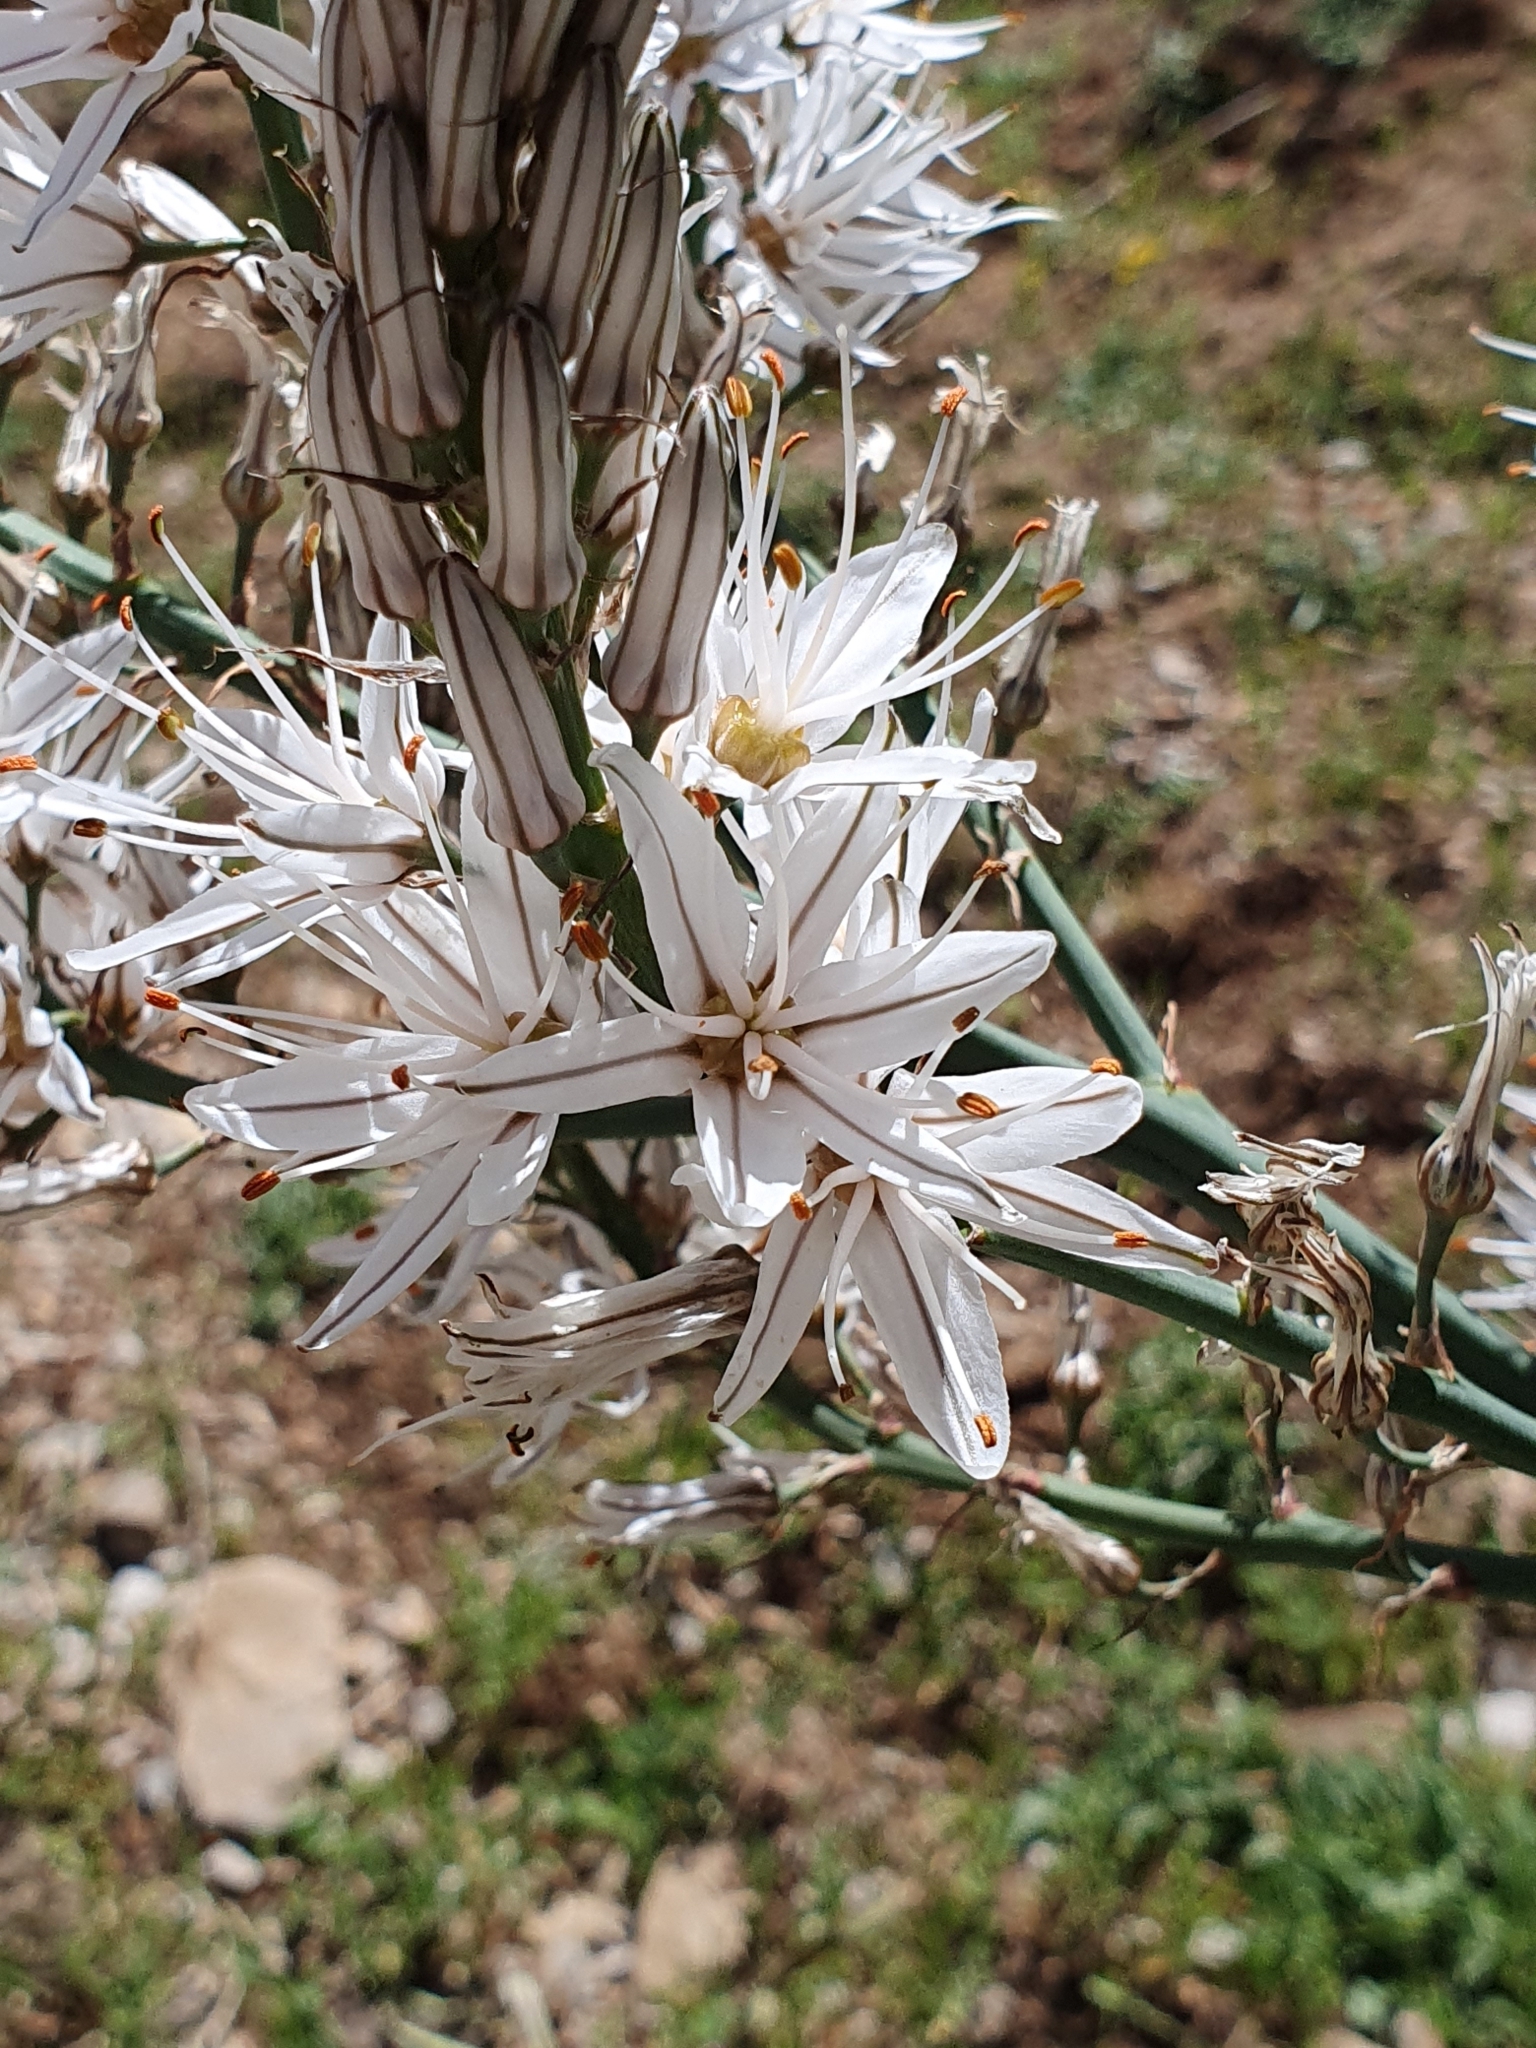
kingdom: Plantae
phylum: Tracheophyta
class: Liliopsida
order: Asparagales
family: Asphodelaceae
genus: Asphodelus
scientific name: Asphodelus ramosus
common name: Silverrod
